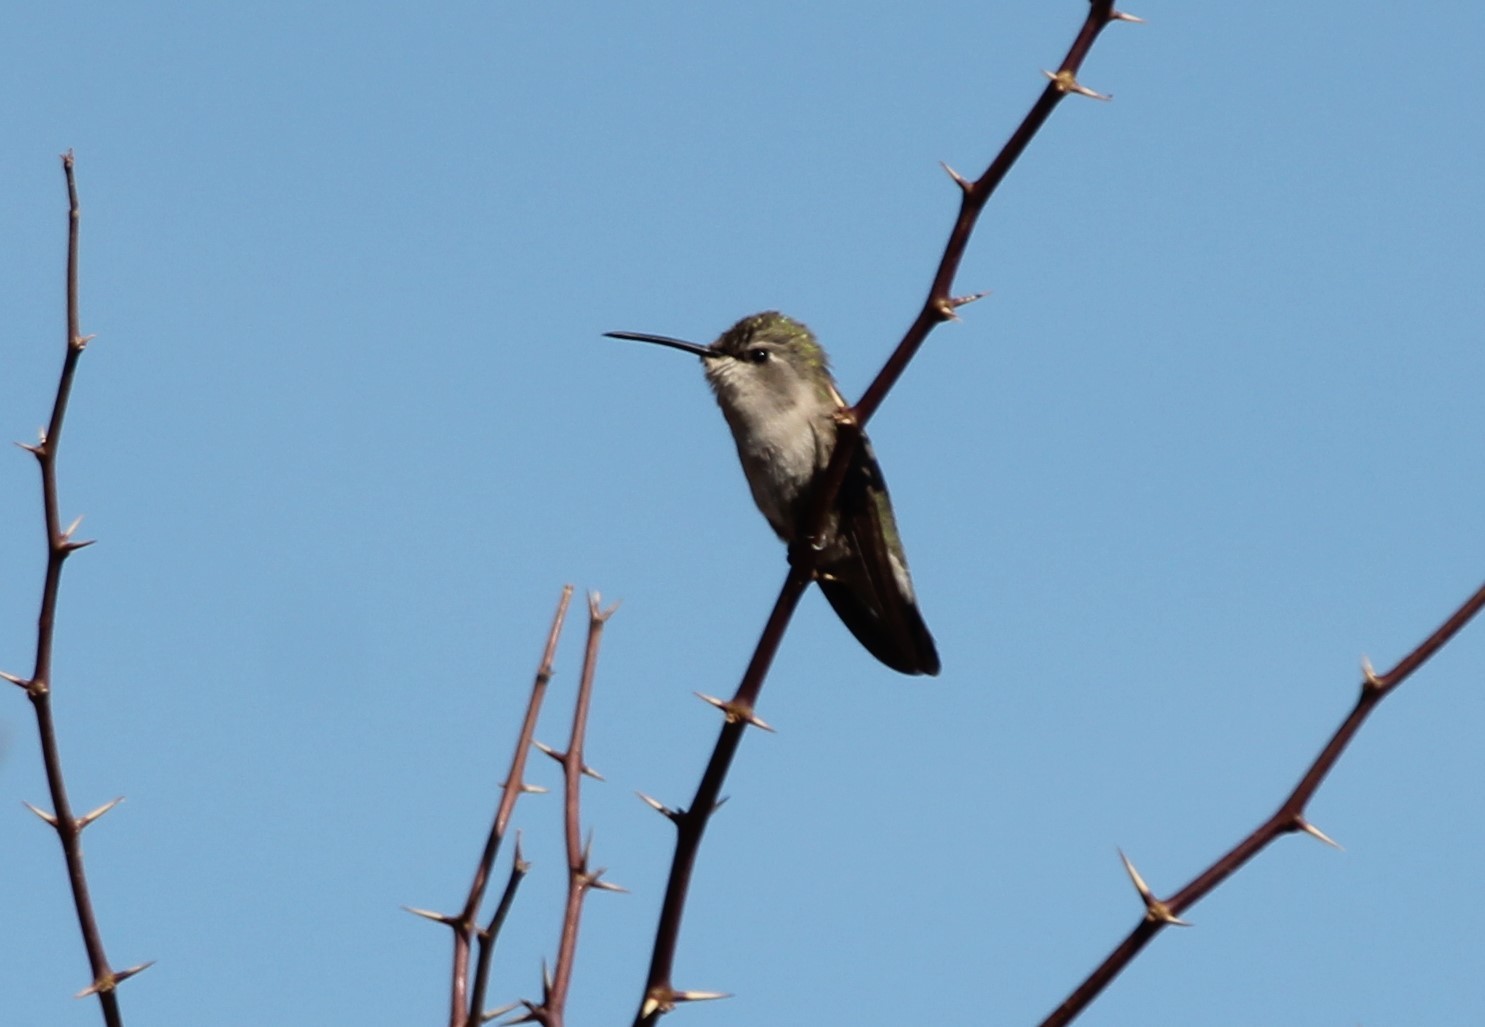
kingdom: Animalia
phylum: Chordata
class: Aves
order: Apodiformes
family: Trochilidae
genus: Calypte
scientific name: Calypte costae
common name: Costa's hummingbird
